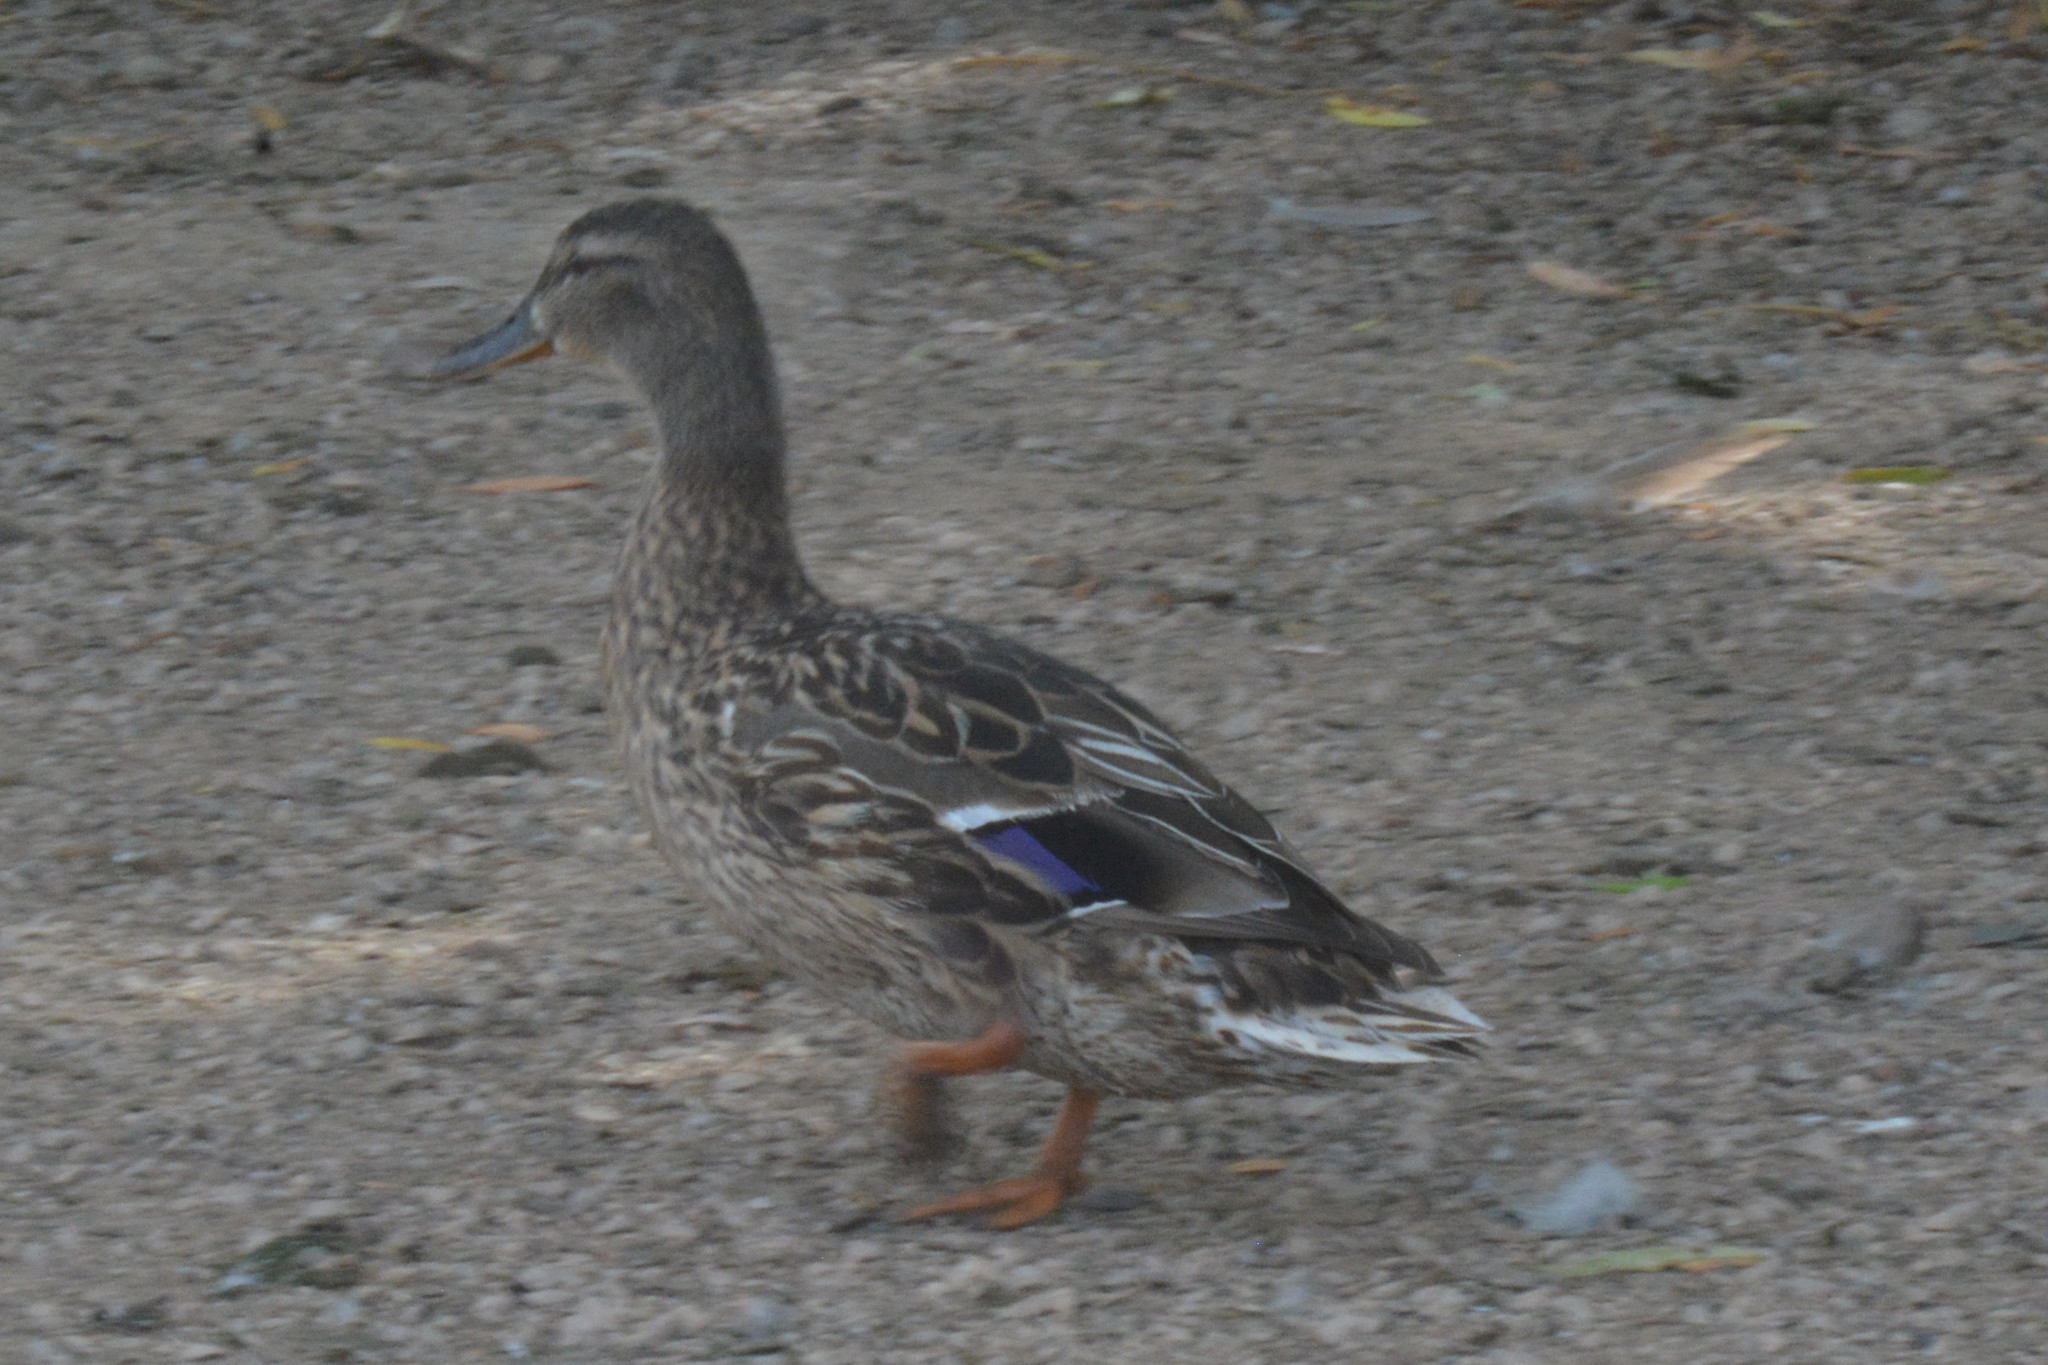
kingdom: Animalia
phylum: Chordata
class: Aves
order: Anseriformes
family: Anatidae
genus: Anas
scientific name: Anas platyrhynchos
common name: Mallard
